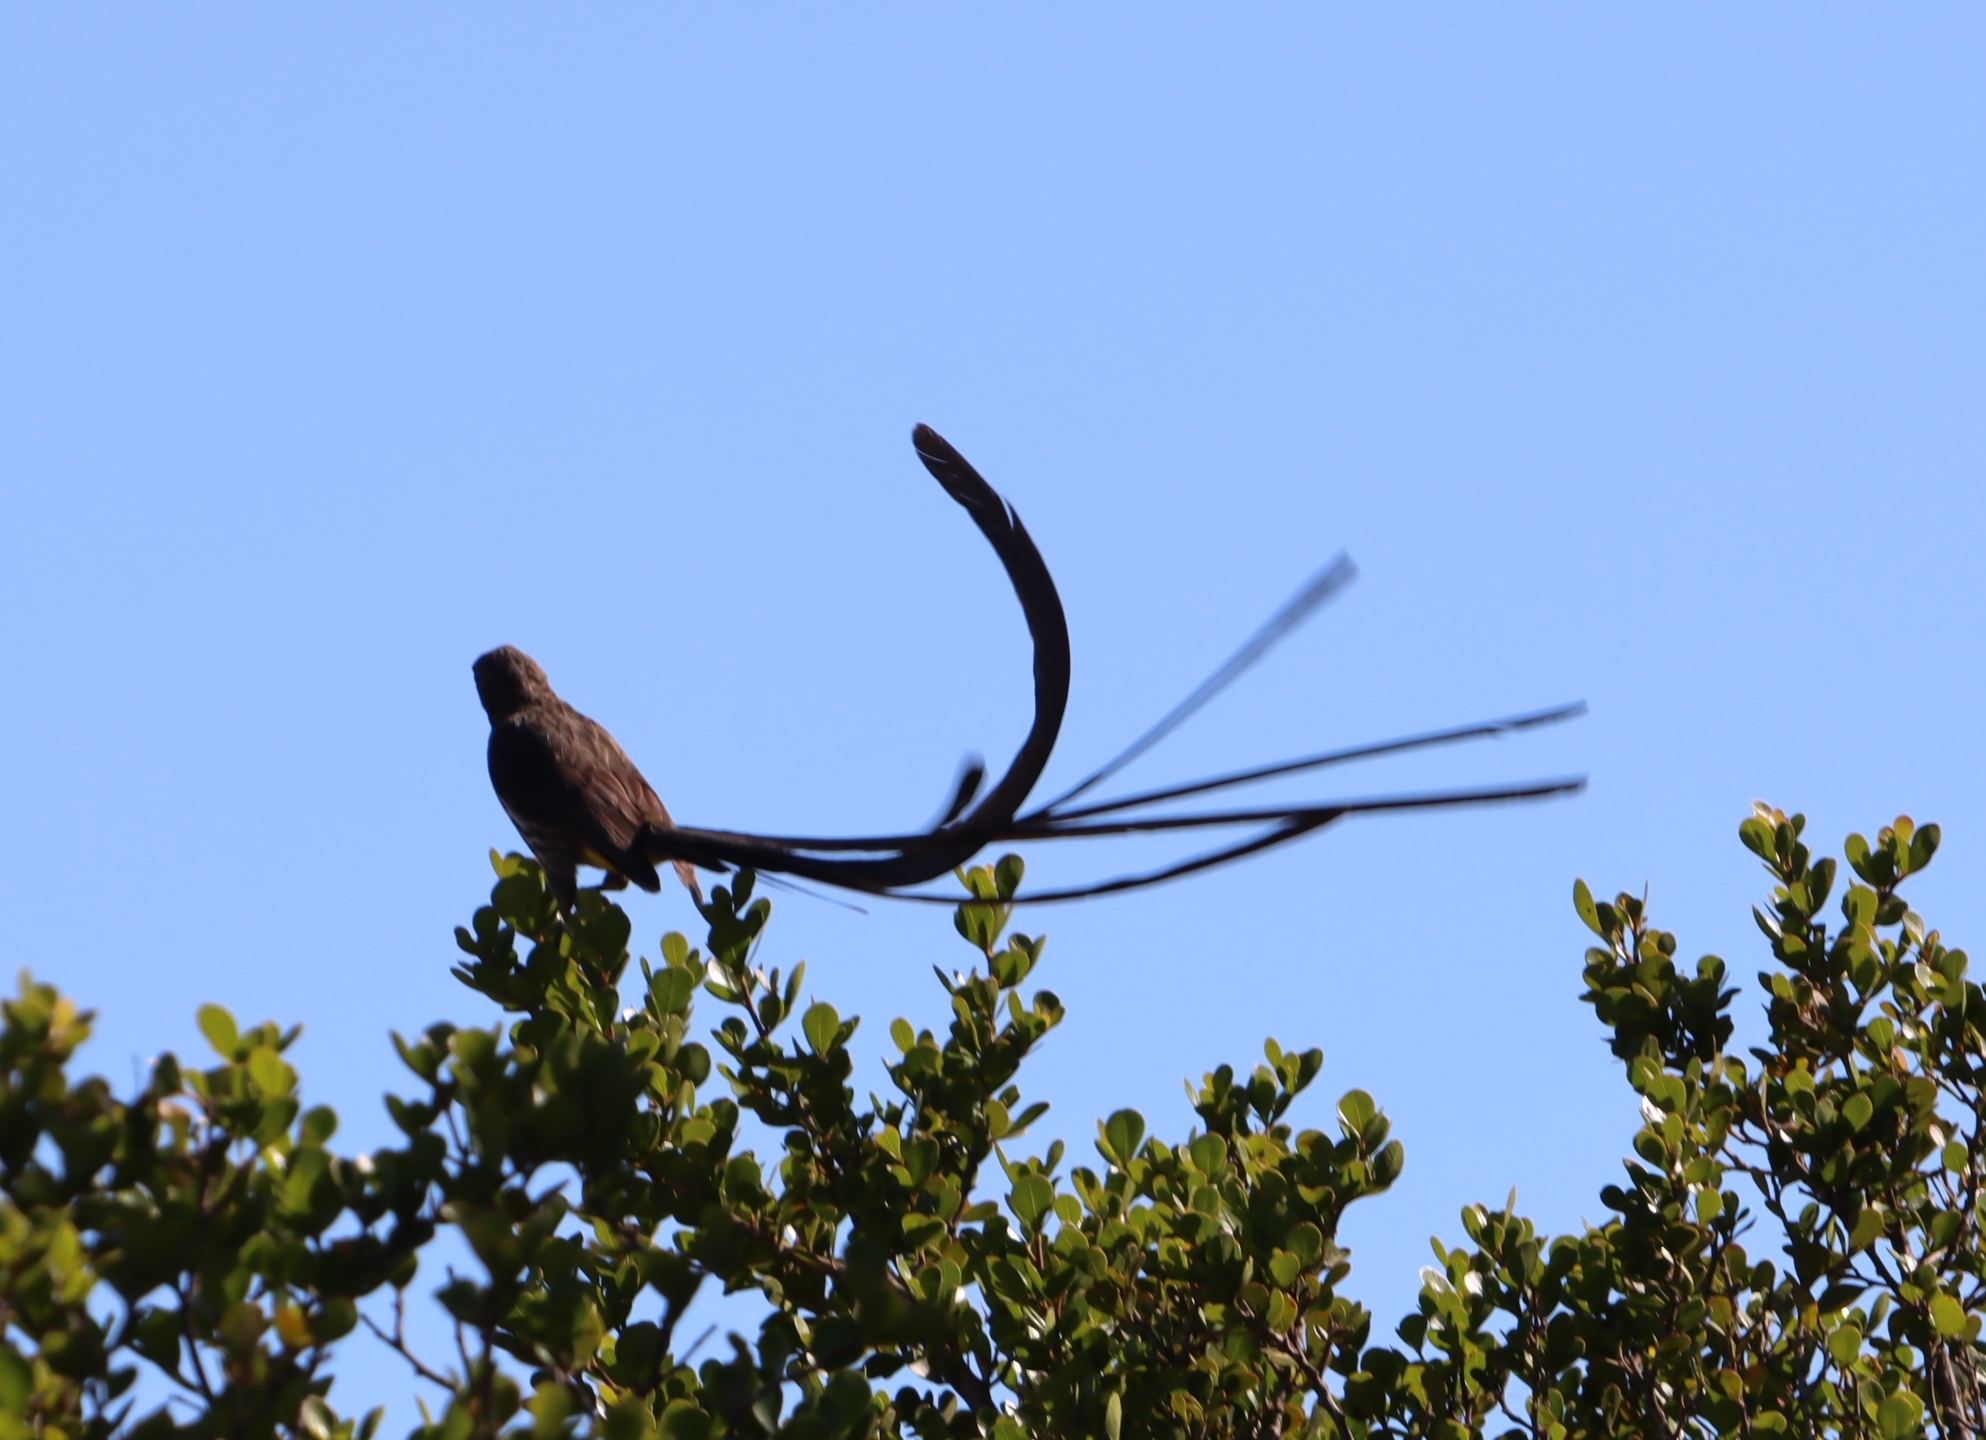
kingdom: Animalia
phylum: Chordata
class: Aves
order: Passeriformes
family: Promeropidae
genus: Promerops
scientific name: Promerops cafer
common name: Cape sugarbird
